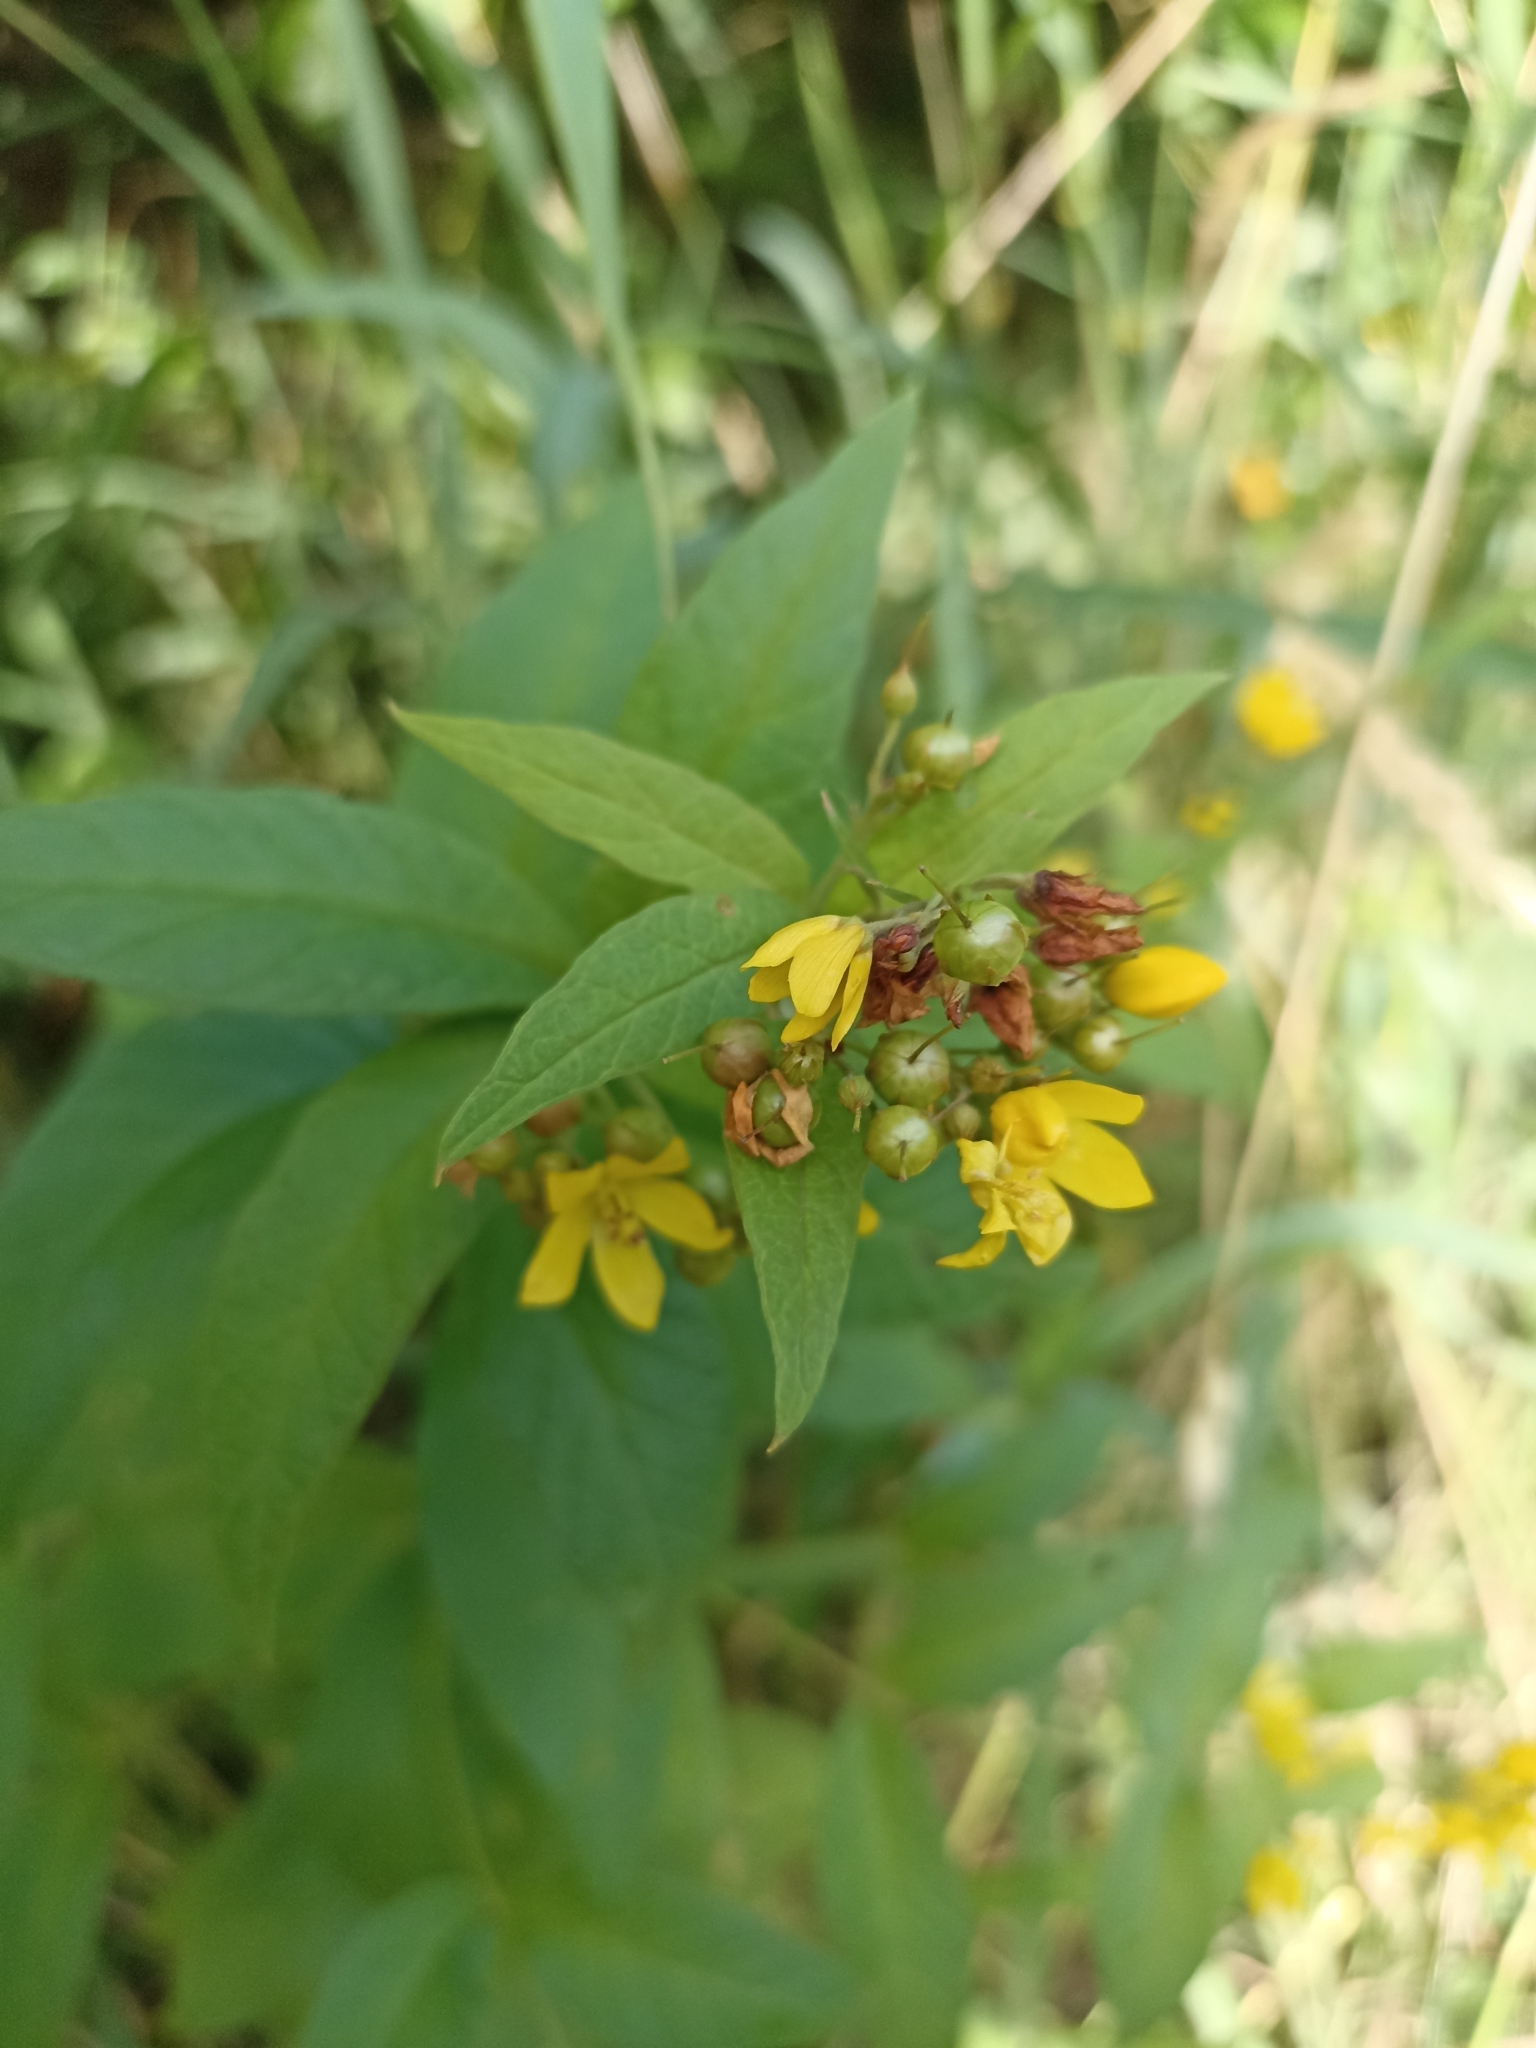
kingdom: Plantae
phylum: Tracheophyta
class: Magnoliopsida
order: Ericales
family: Primulaceae
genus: Lysimachia
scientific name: Lysimachia vulgaris
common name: Yellow loosestrife
